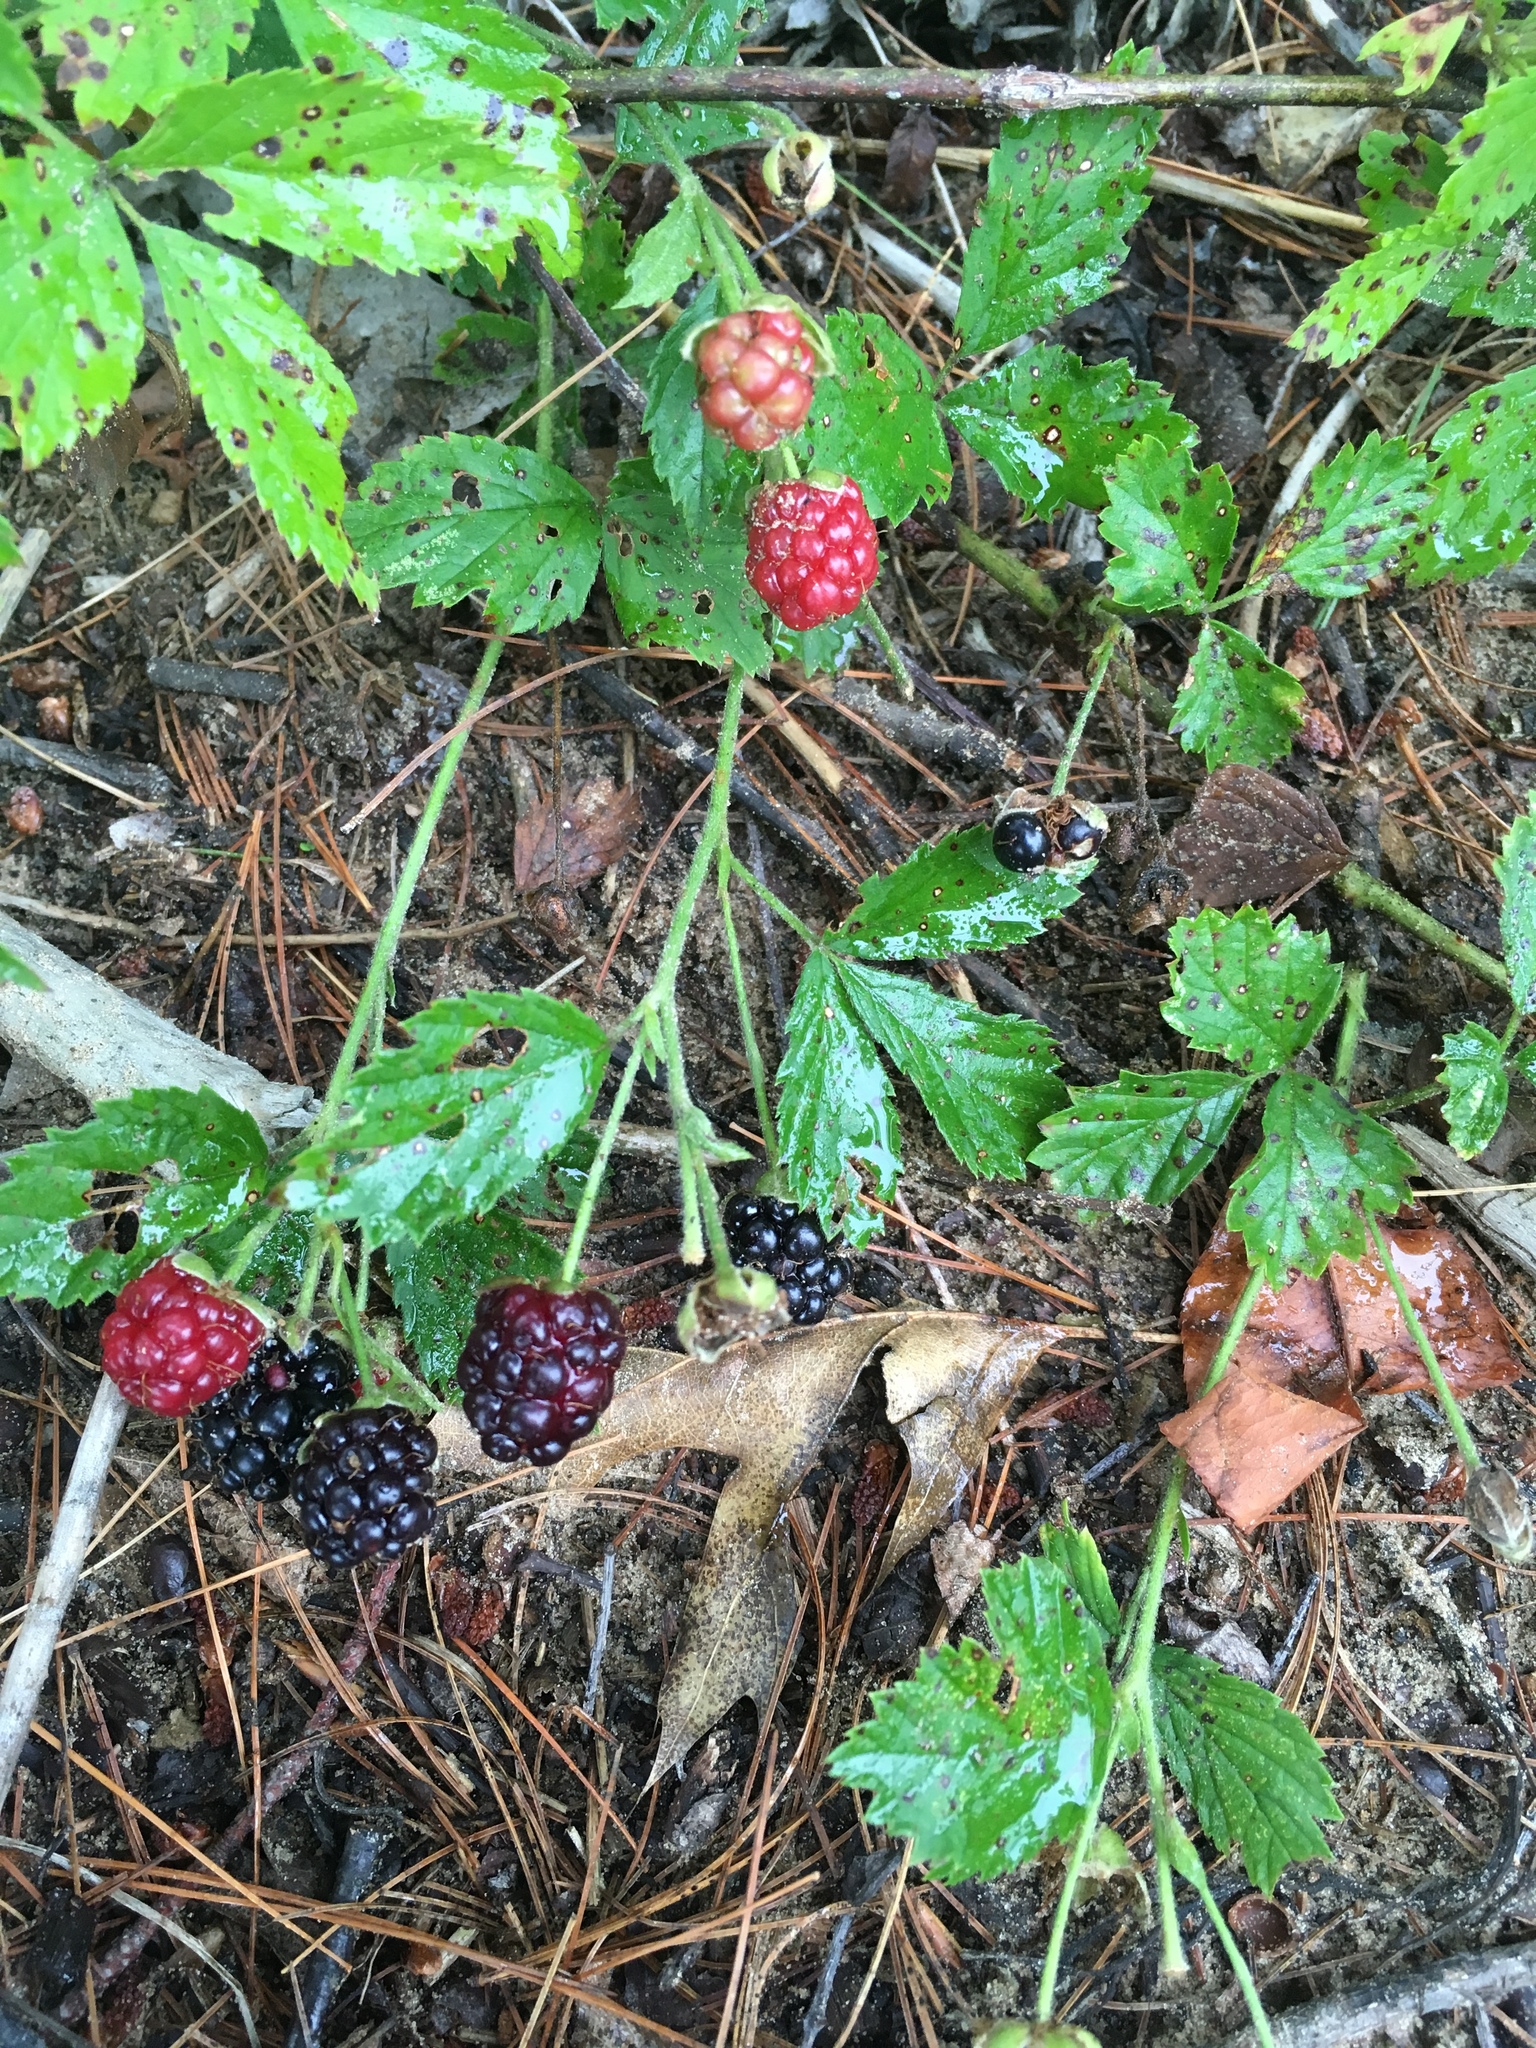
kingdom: Plantae
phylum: Tracheophyta
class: Magnoliopsida
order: Rosales
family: Rosaceae
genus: Rubus
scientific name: Rubus flagellaris
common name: American dewberry
